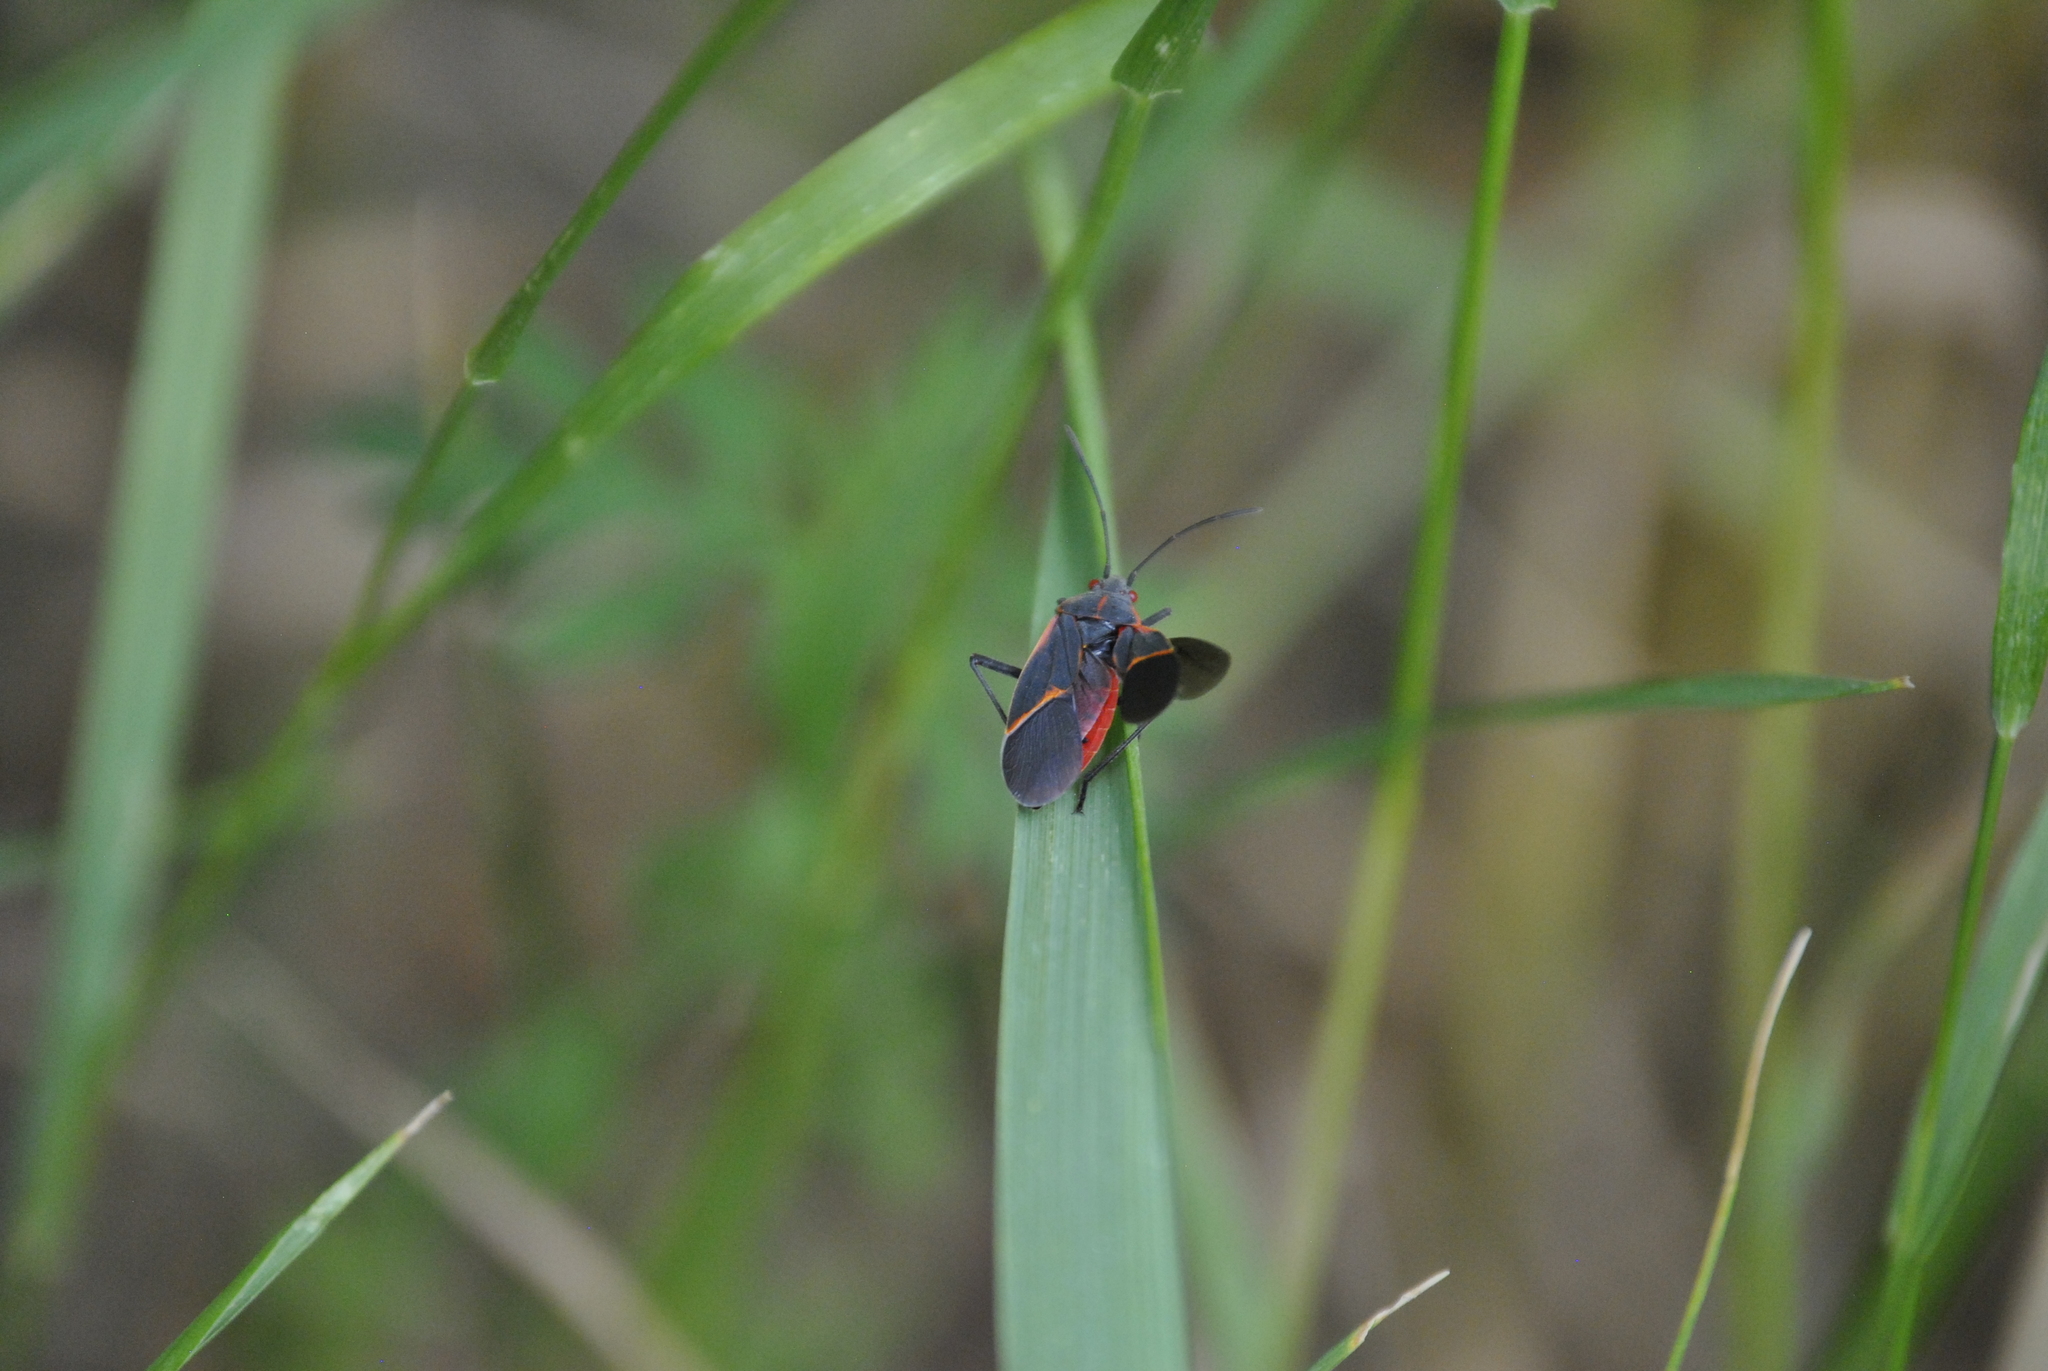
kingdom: Animalia
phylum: Arthropoda
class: Insecta
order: Hemiptera
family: Rhopalidae
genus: Boisea
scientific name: Boisea trivittata
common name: Boxelder bug
